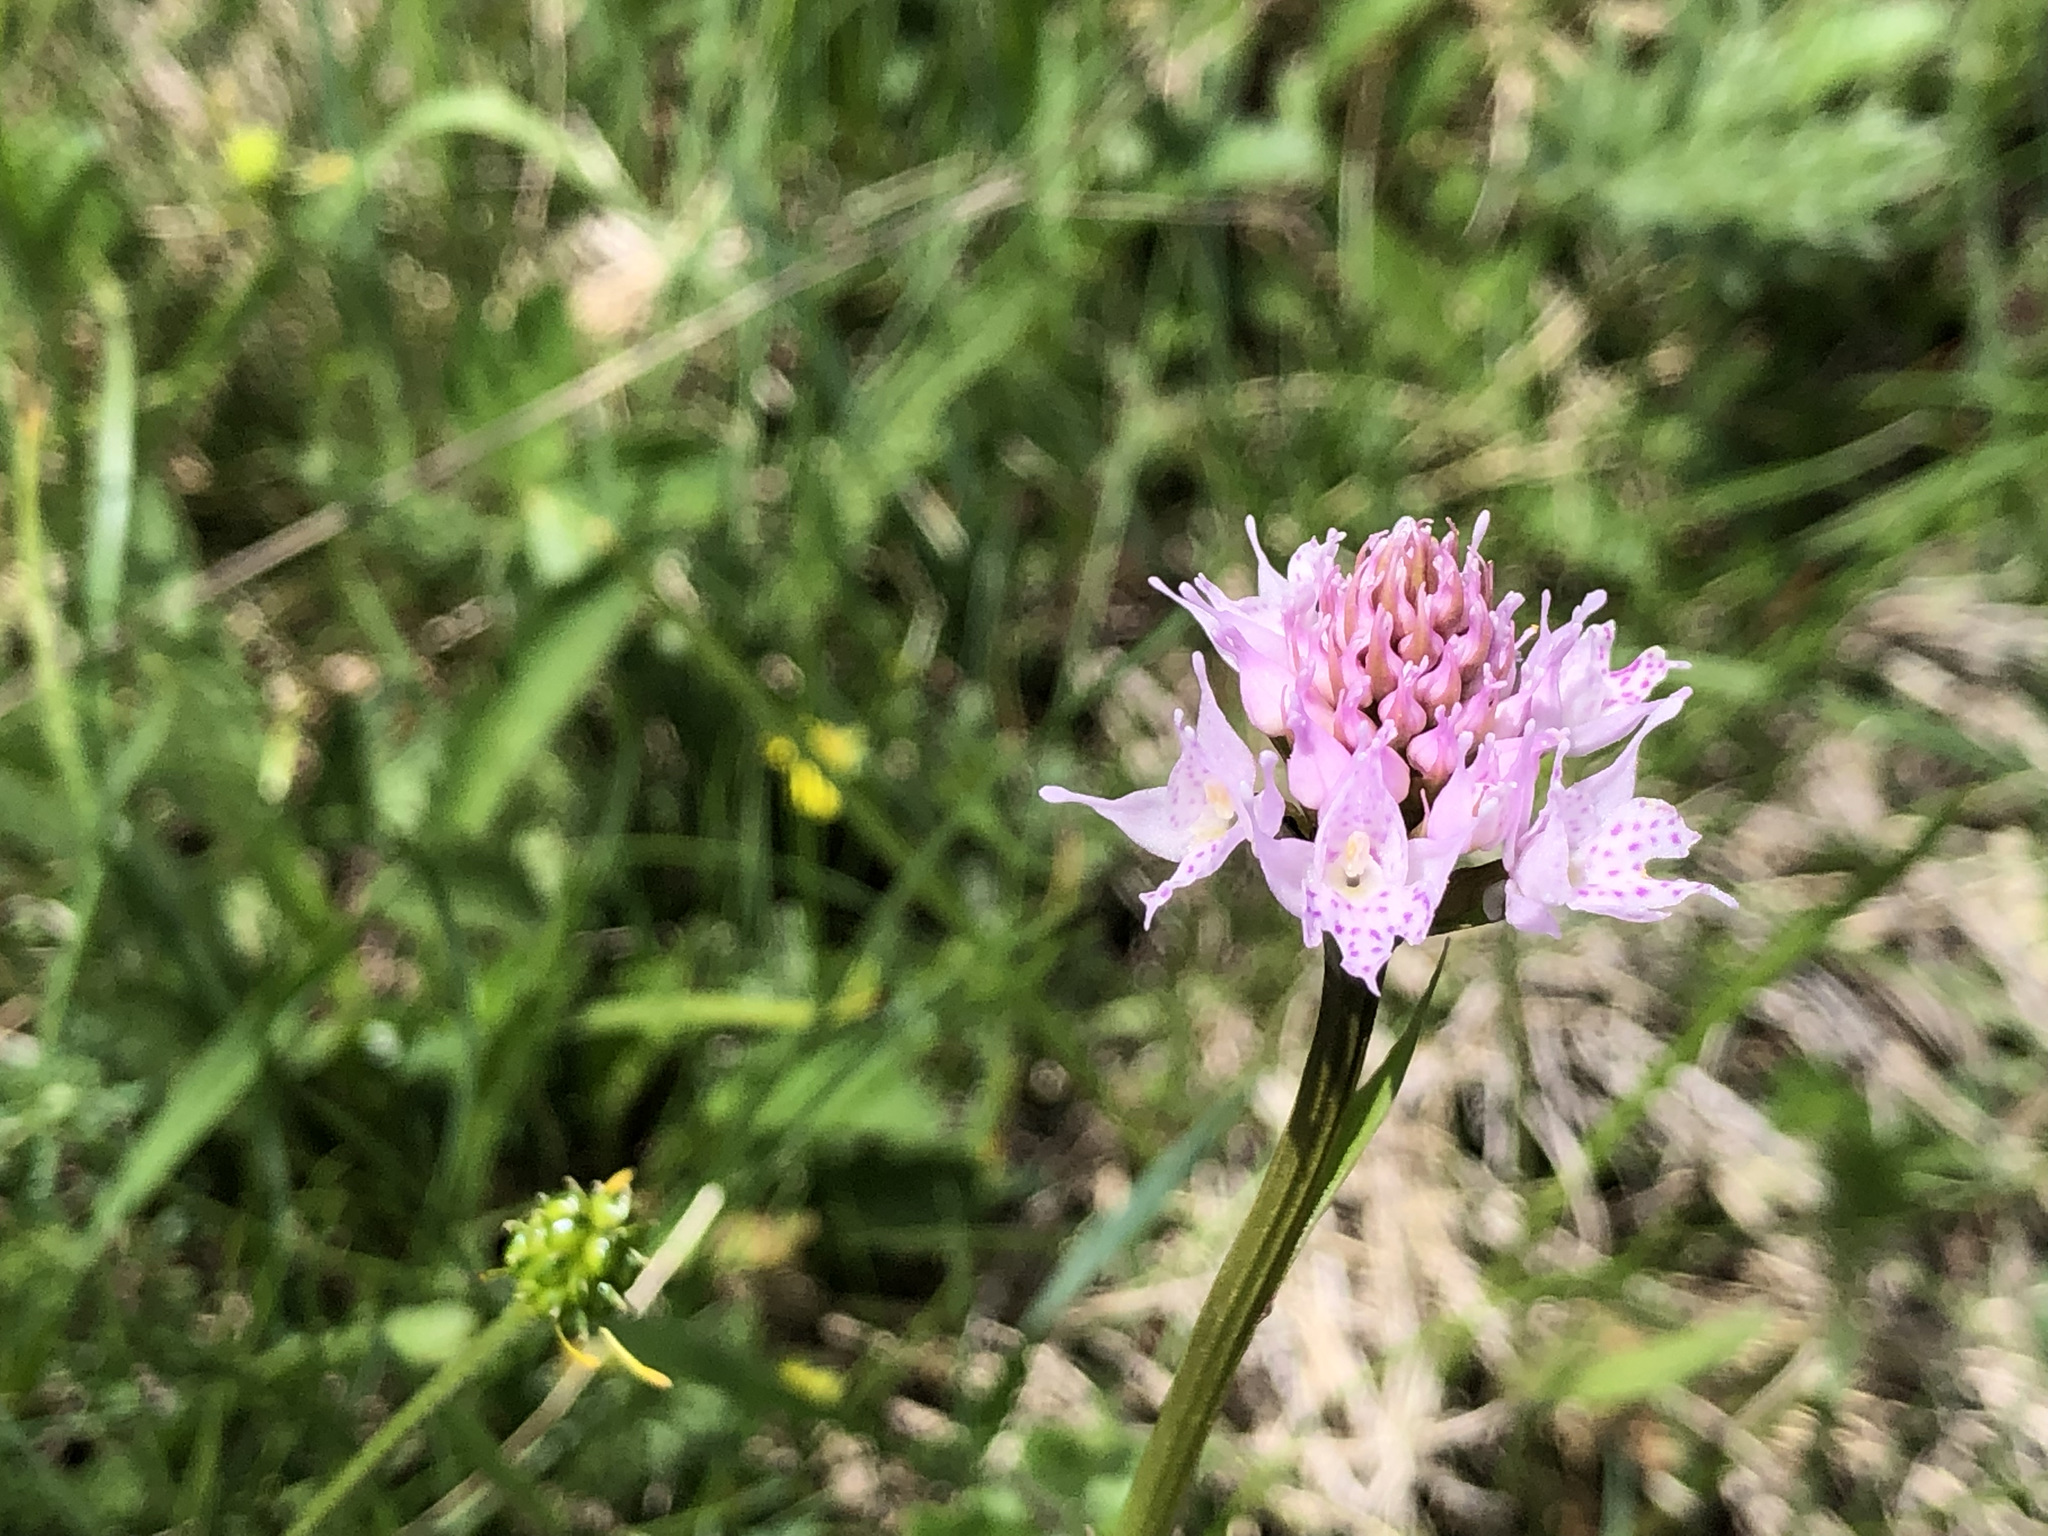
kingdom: Plantae
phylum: Tracheophyta
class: Liliopsida
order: Asparagales
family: Orchidaceae
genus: Traunsteinera
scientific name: Traunsteinera globosa
